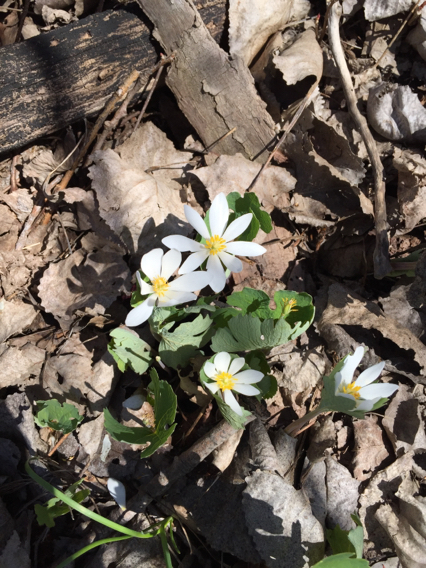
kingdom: Plantae
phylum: Tracheophyta
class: Magnoliopsida
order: Ranunculales
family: Papaveraceae
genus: Sanguinaria
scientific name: Sanguinaria canadensis
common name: Bloodroot
